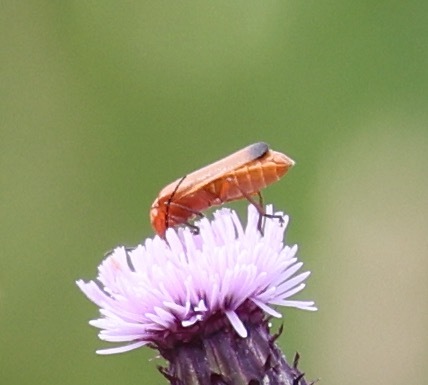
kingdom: Animalia
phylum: Arthropoda
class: Insecta
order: Coleoptera
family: Cantharidae
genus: Rhagonycha
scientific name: Rhagonycha fulva
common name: Common red soldier beetle
